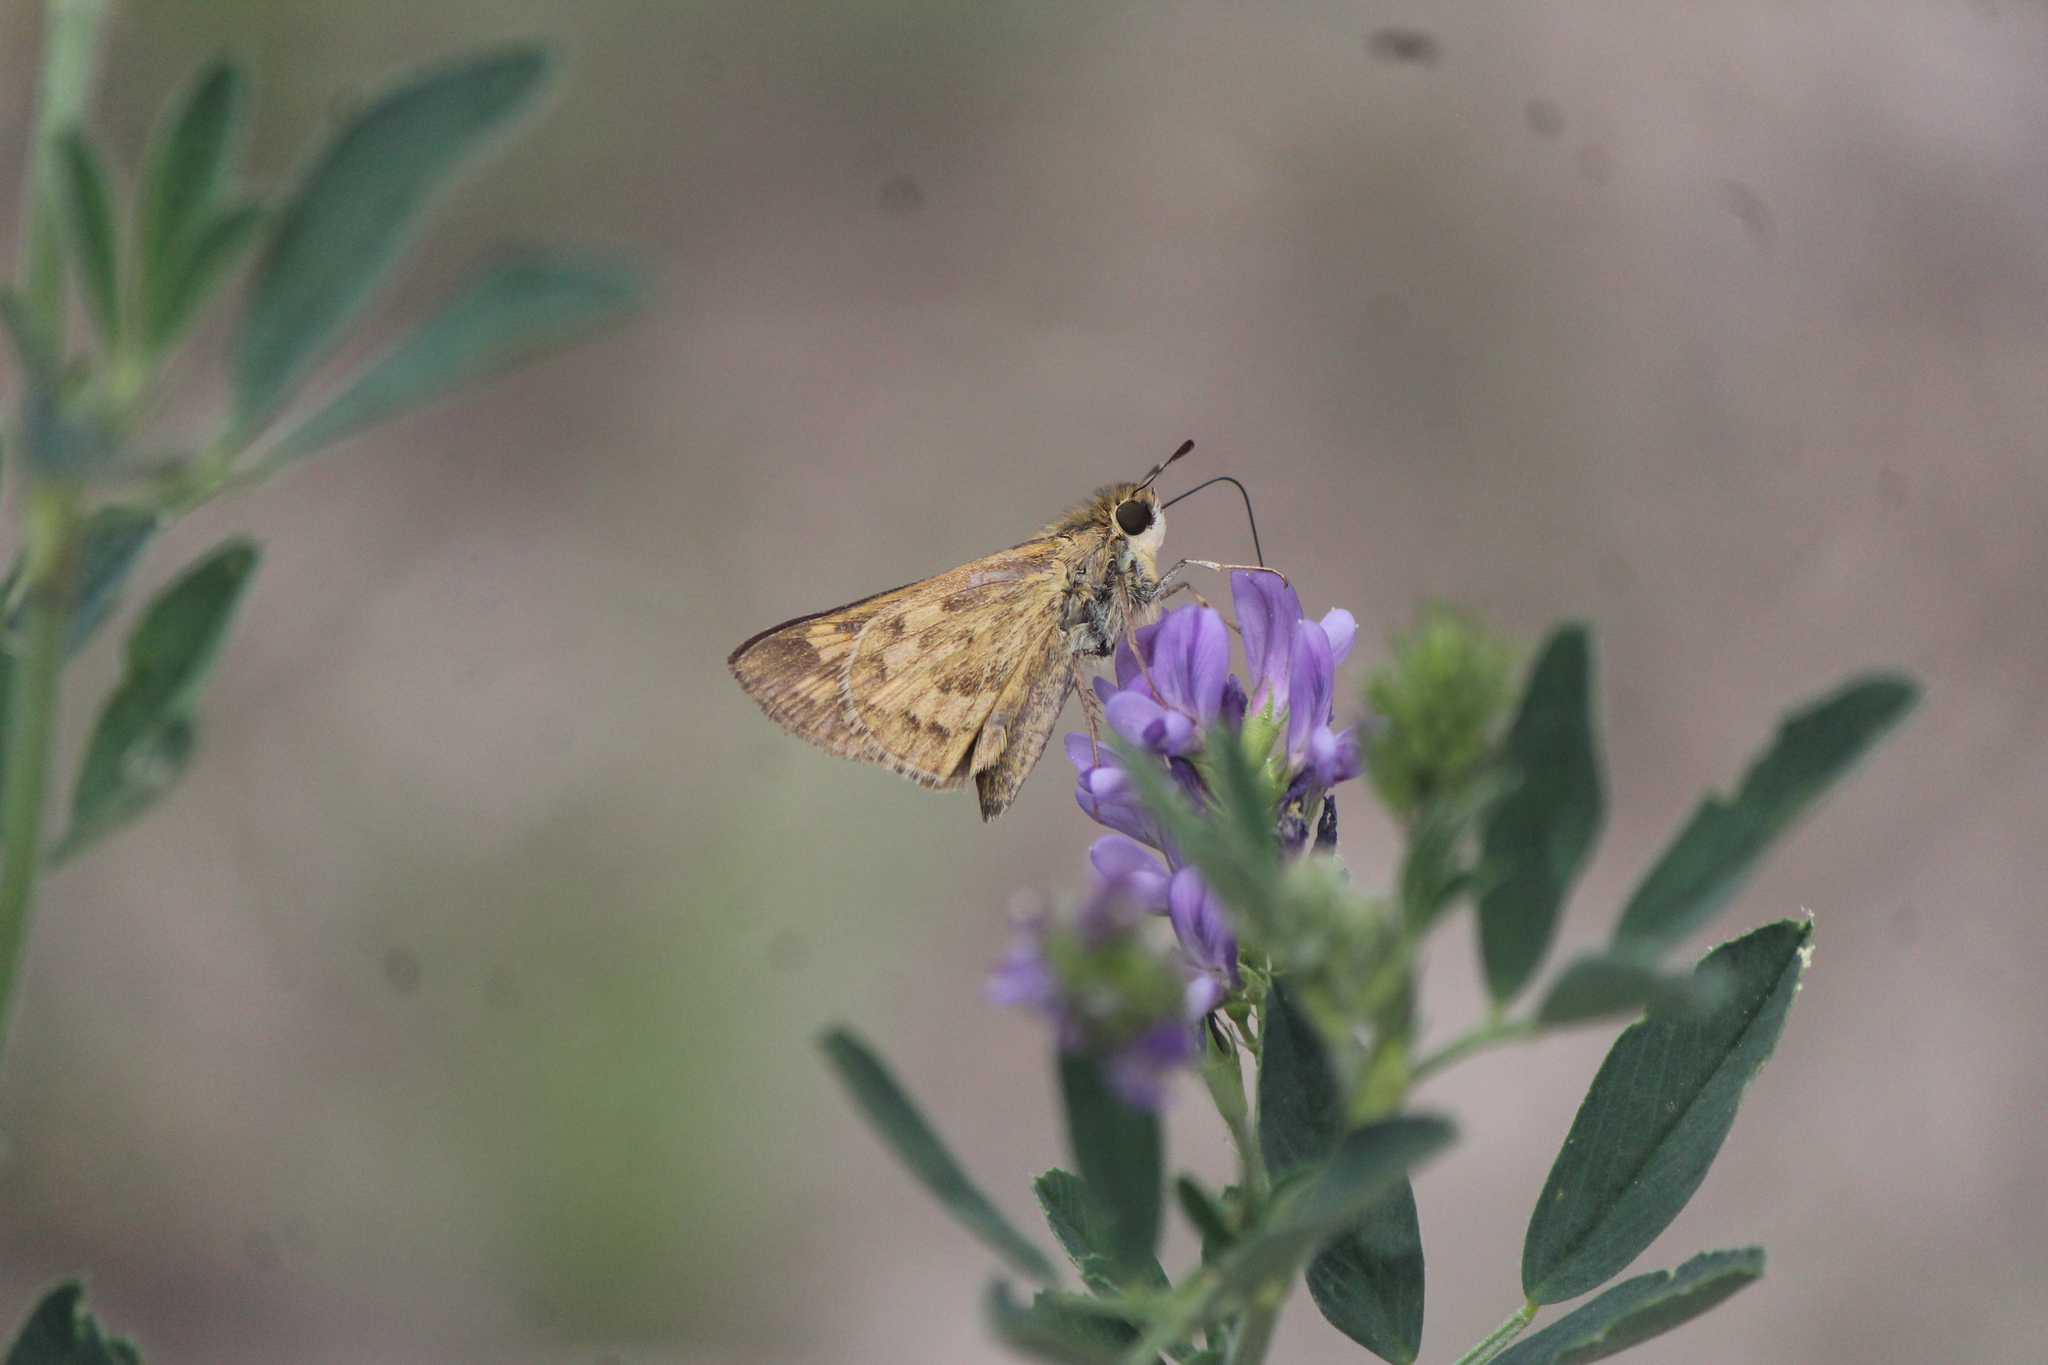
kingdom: Animalia
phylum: Arthropoda
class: Insecta
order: Lepidoptera
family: Hesperiidae
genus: Hylephila
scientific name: Hylephila phyleus
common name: Fiery skipper
